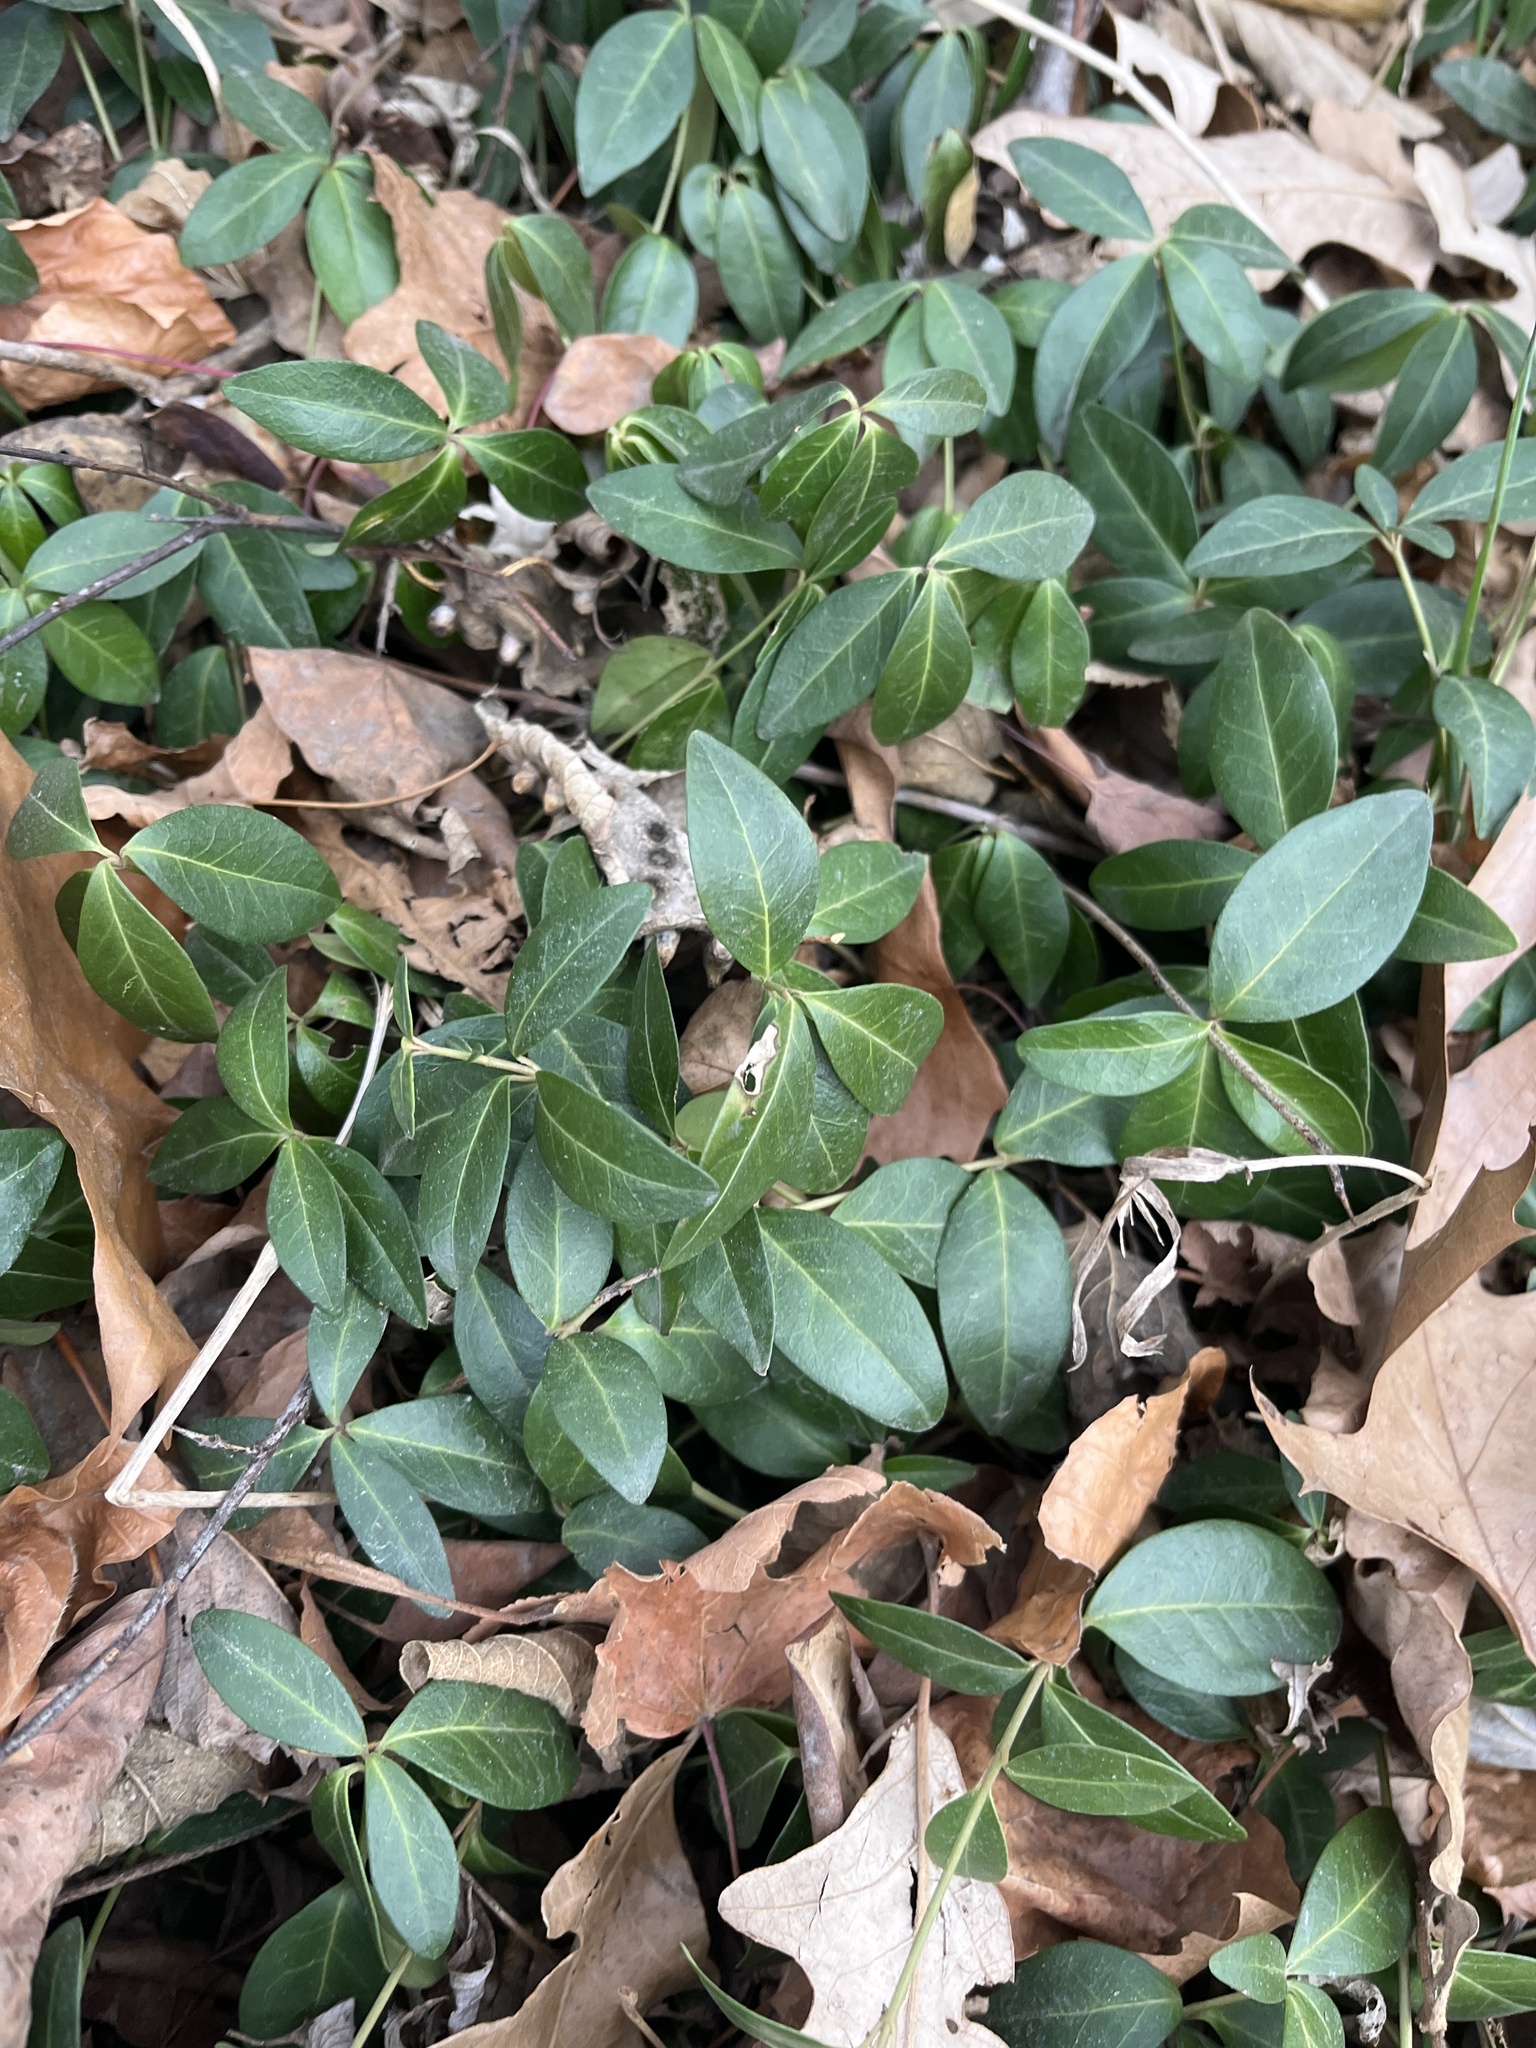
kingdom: Plantae
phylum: Tracheophyta
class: Magnoliopsida
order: Gentianales
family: Apocynaceae
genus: Vinca
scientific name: Vinca minor
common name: Lesser periwinkle
